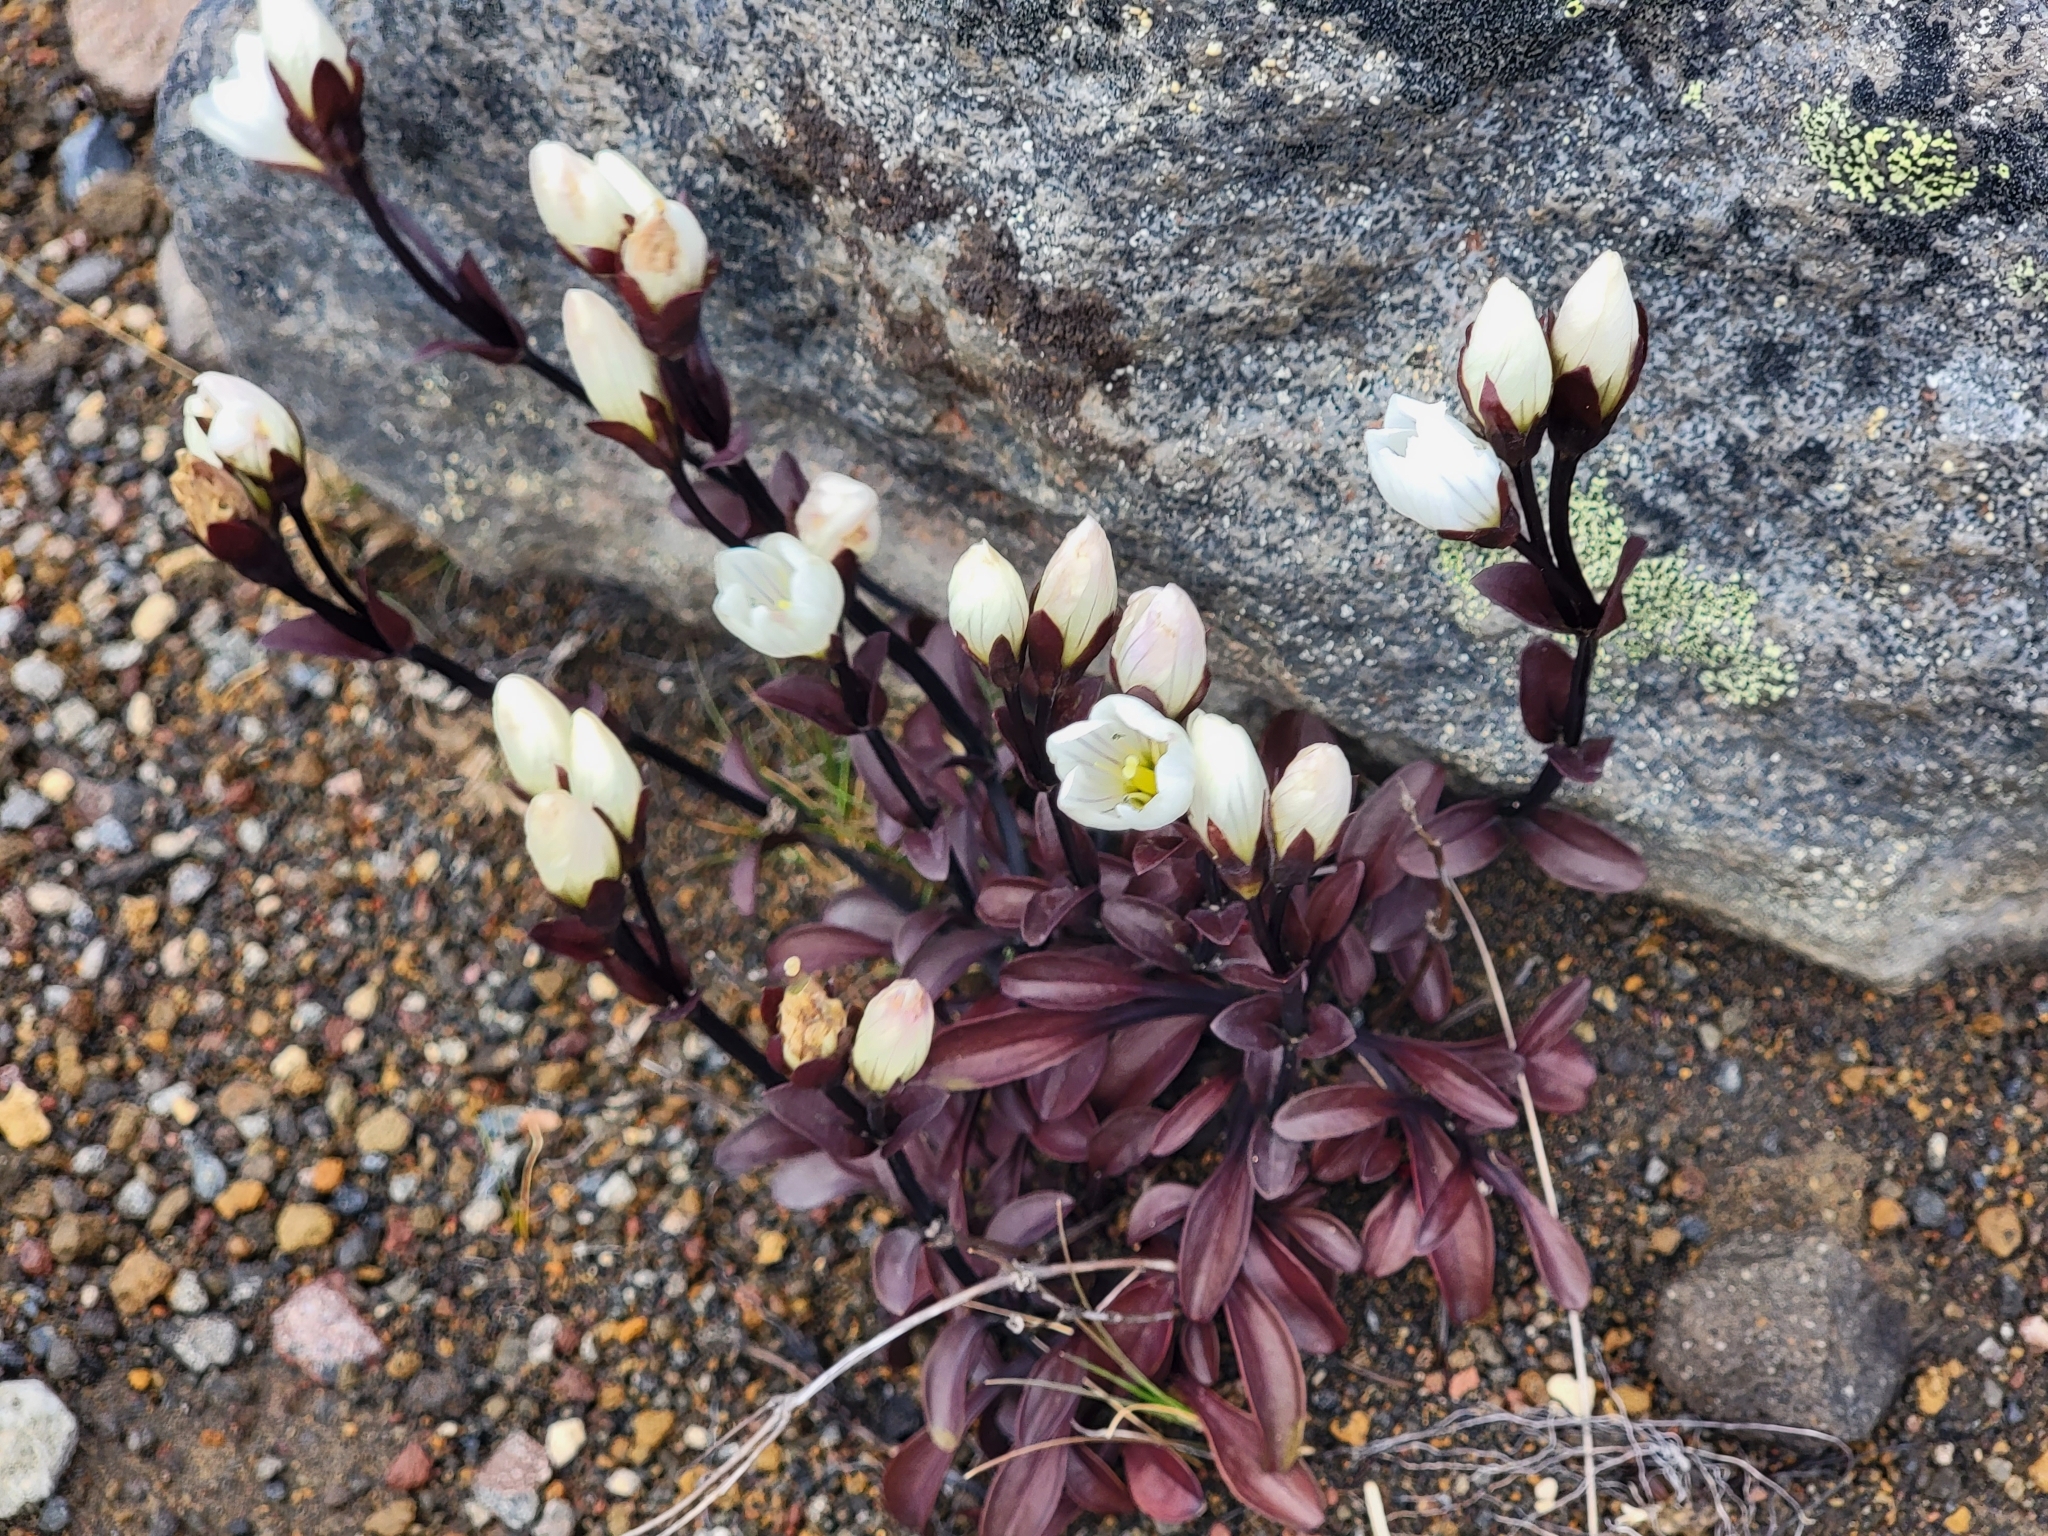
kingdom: Plantae
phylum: Tracheophyta
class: Magnoliopsida
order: Gentianales
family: Gentianaceae
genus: Gentianella
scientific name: Gentianella bellidifolia
